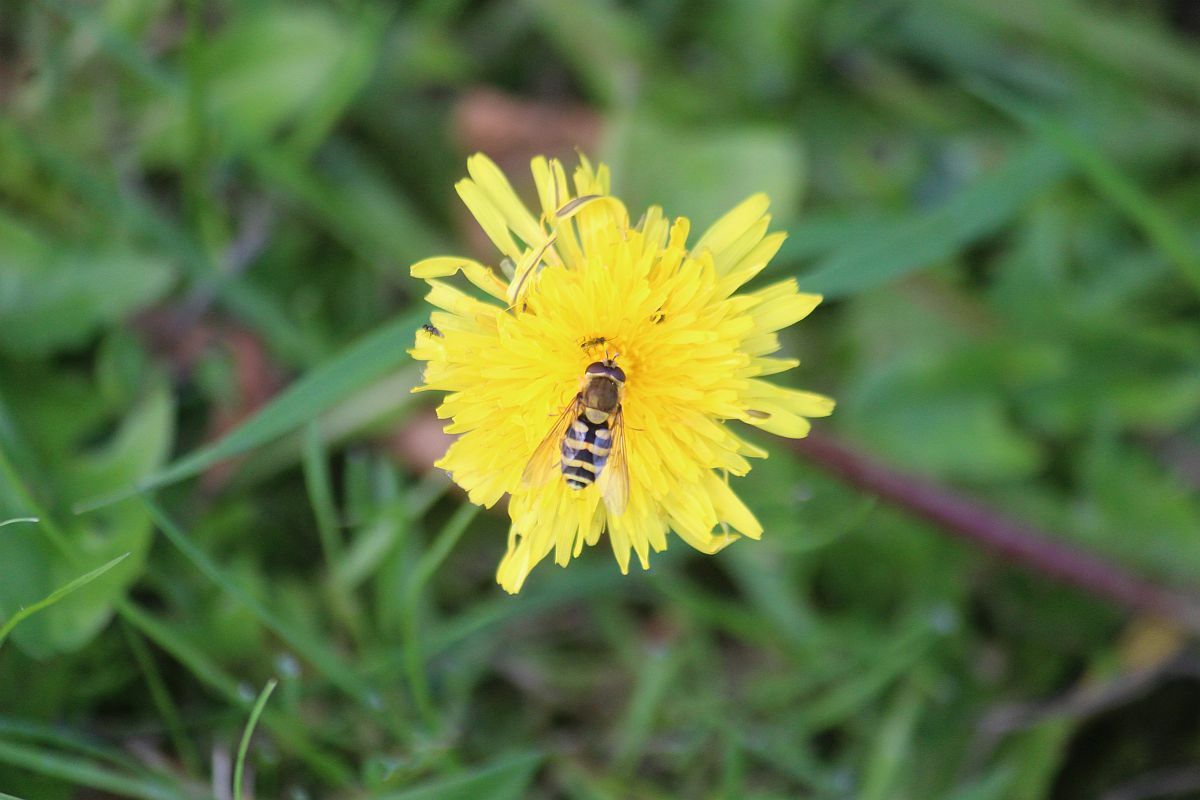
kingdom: Animalia
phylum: Arthropoda
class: Insecta
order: Diptera
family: Syrphidae
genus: Syrphus
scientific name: Syrphus
